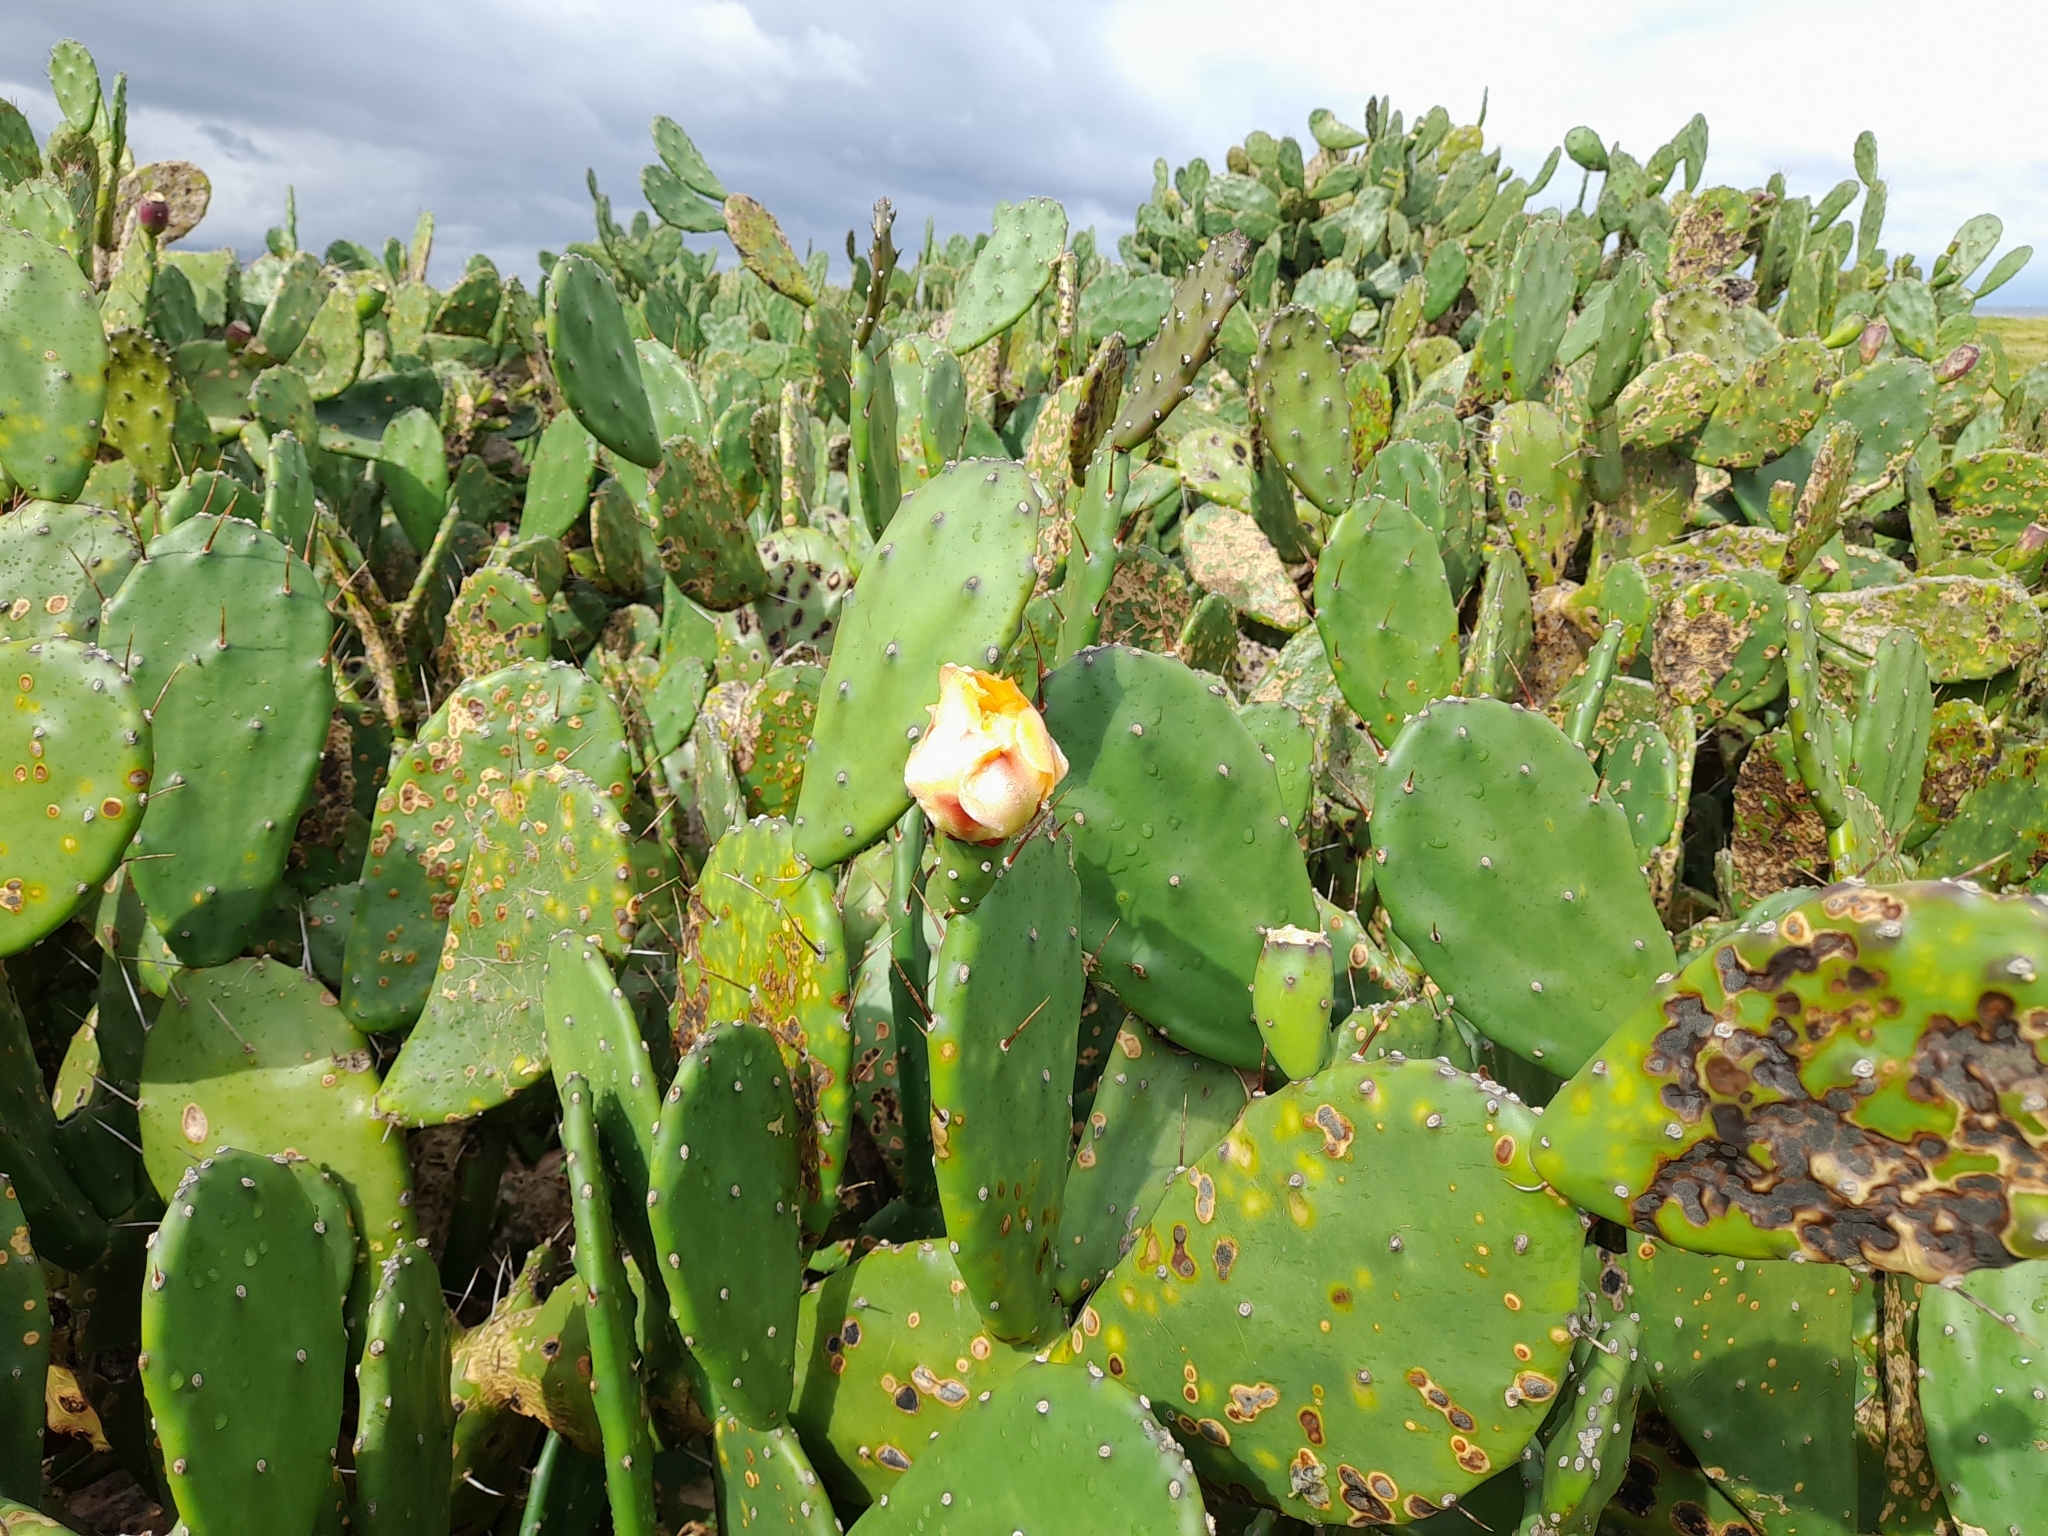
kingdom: Plantae
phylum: Tracheophyta
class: Magnoliopsida
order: Caryophyllales
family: Cactaceae
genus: Opuntia
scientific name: Opuntia elata
